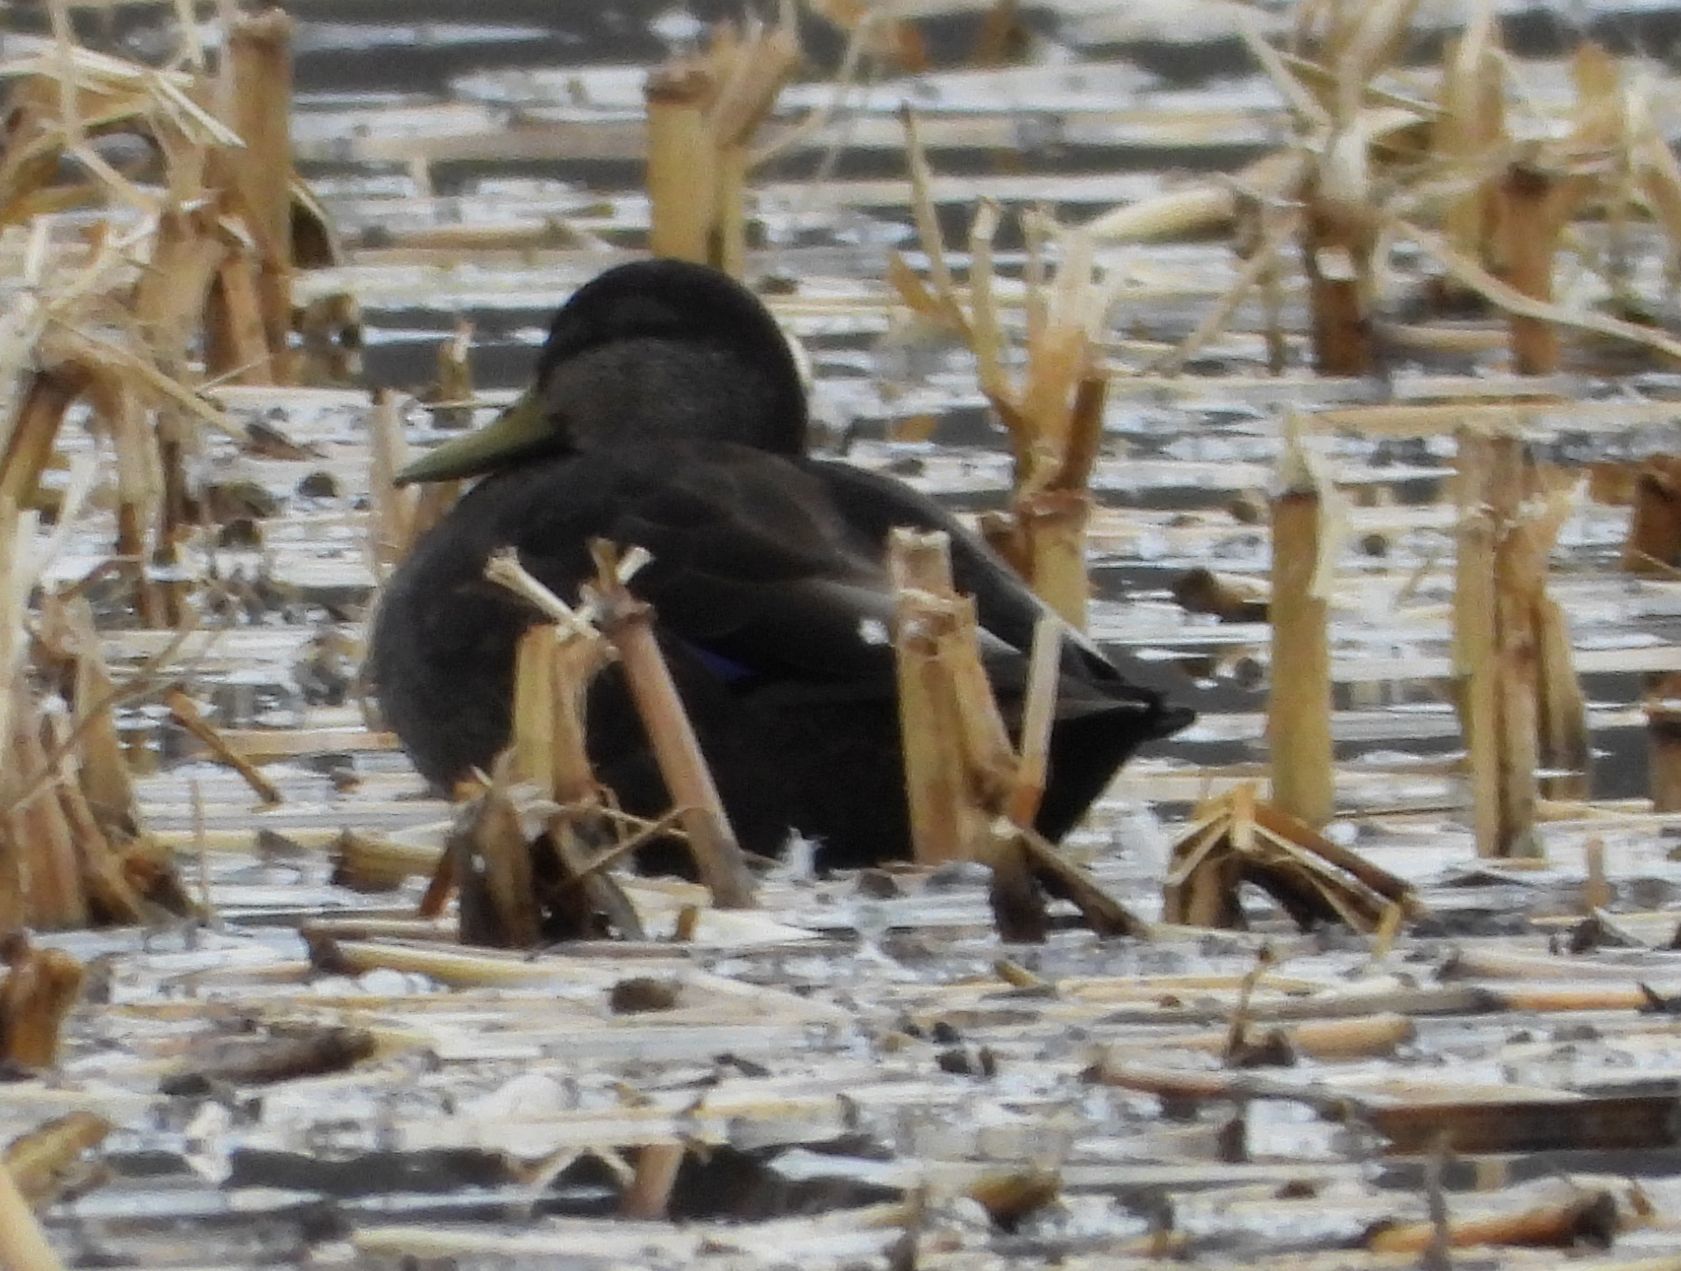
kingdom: Animalia
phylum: Chordata
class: Aves
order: Anseriformes
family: Anatidae
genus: Anas
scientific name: Anas rubripes
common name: American black duck
